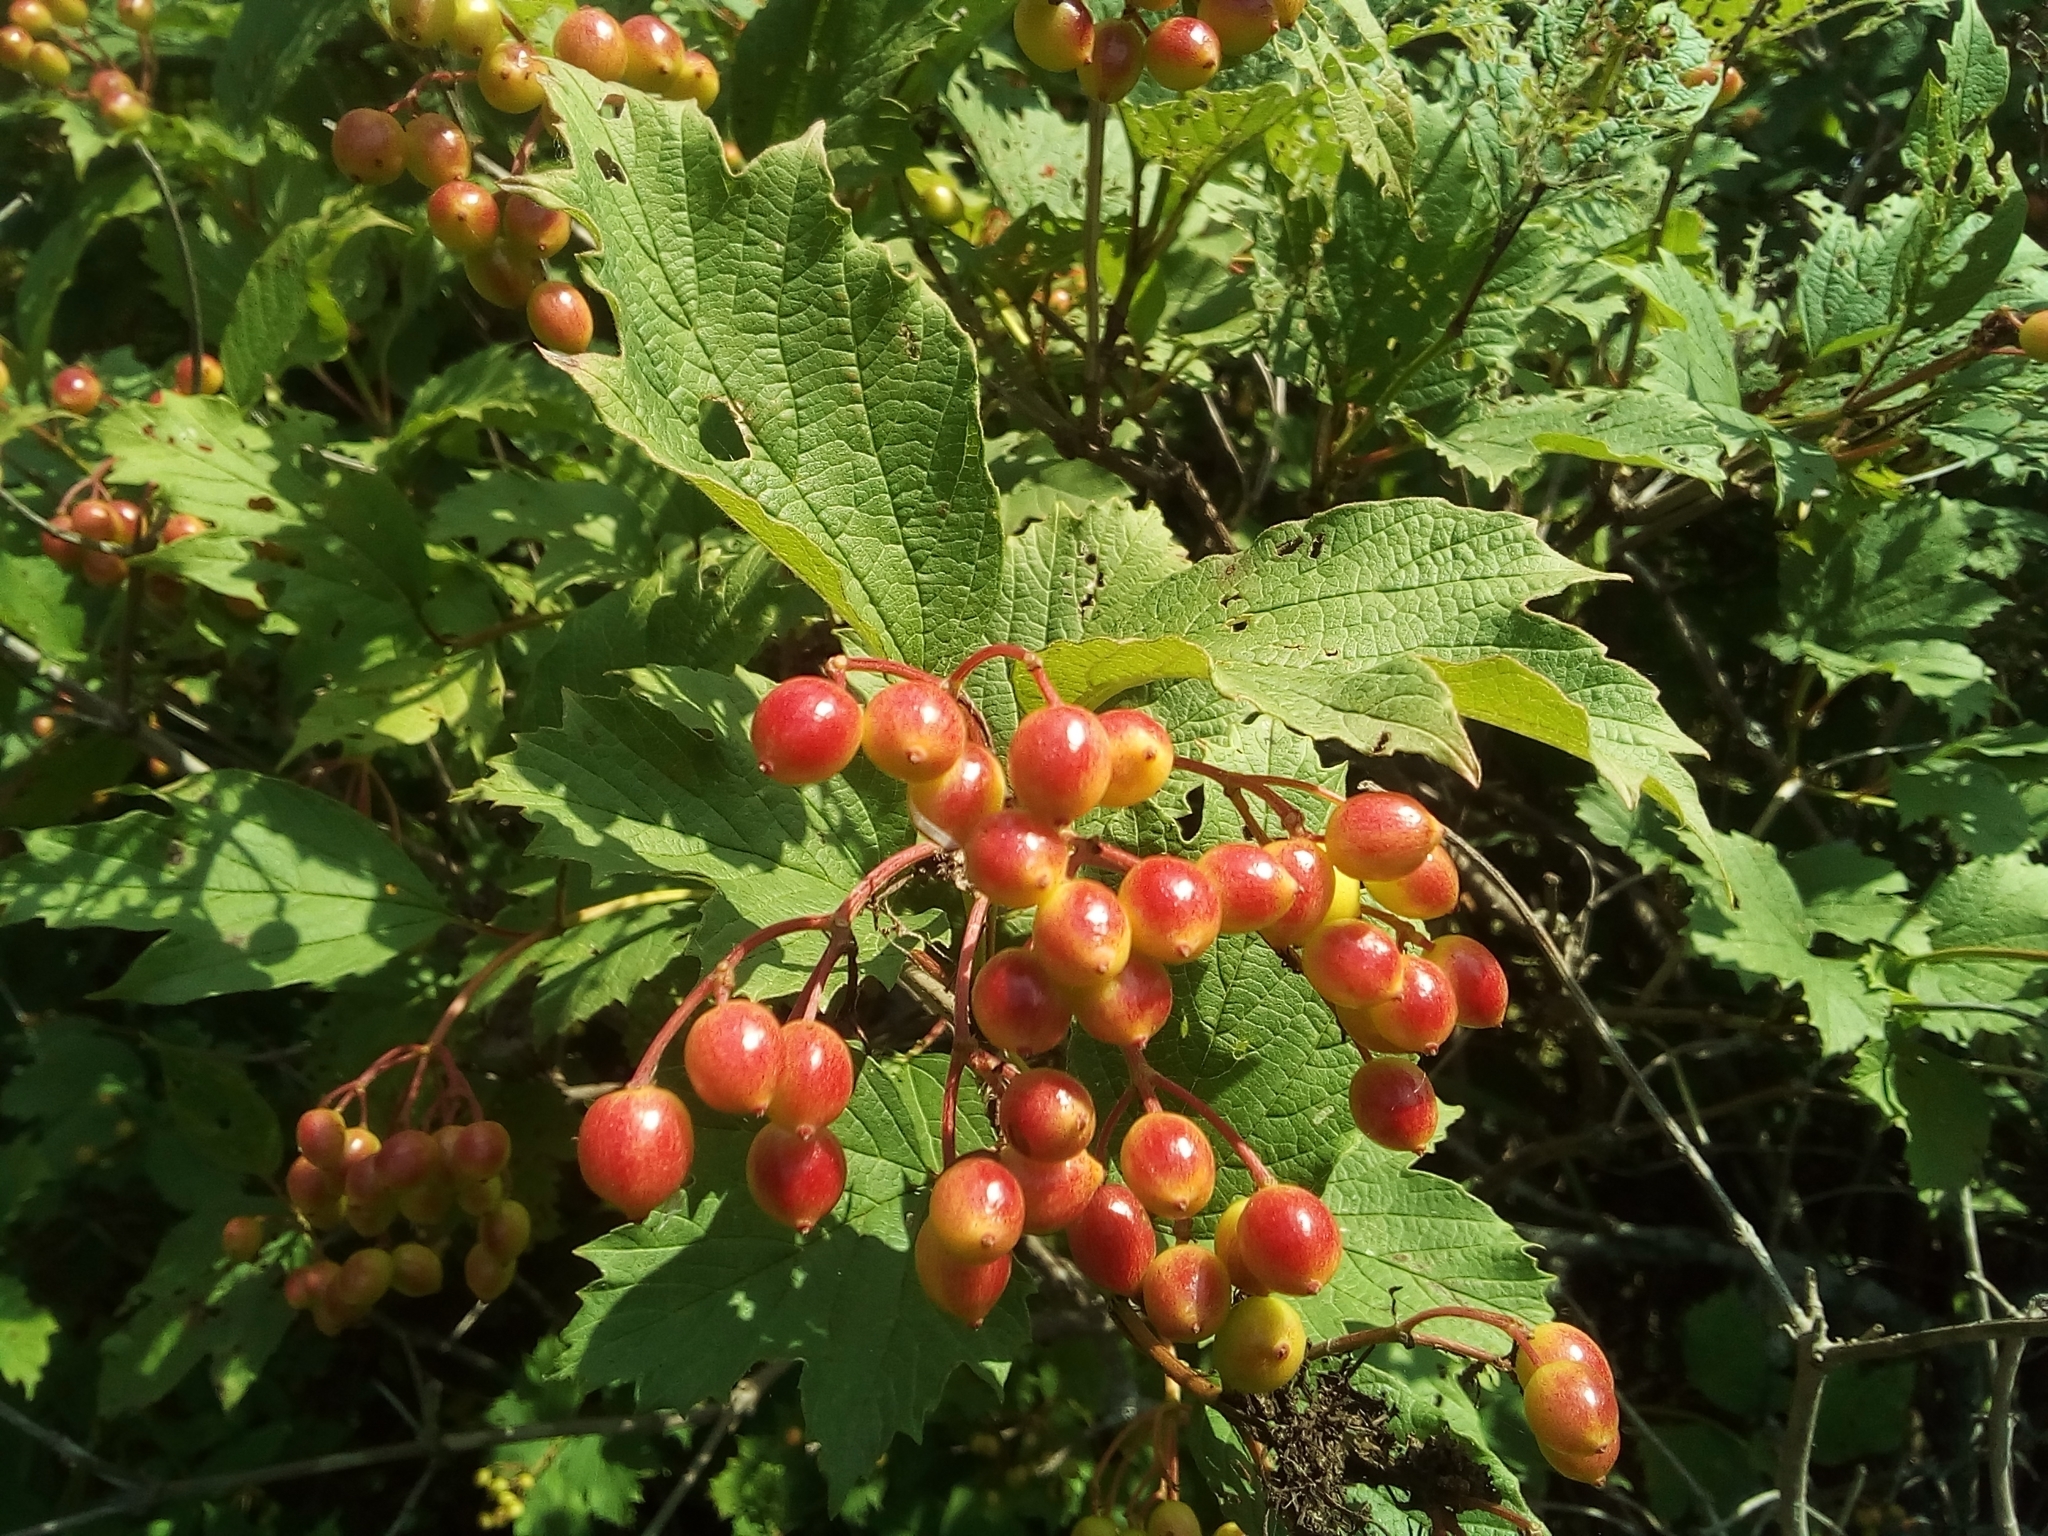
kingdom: Plantae
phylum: Tracheophyta
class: Magnoliopsida
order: Dipsacales
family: Viburnaceae
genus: Viburnum
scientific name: Viburnum opulus
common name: Guelder-rose
